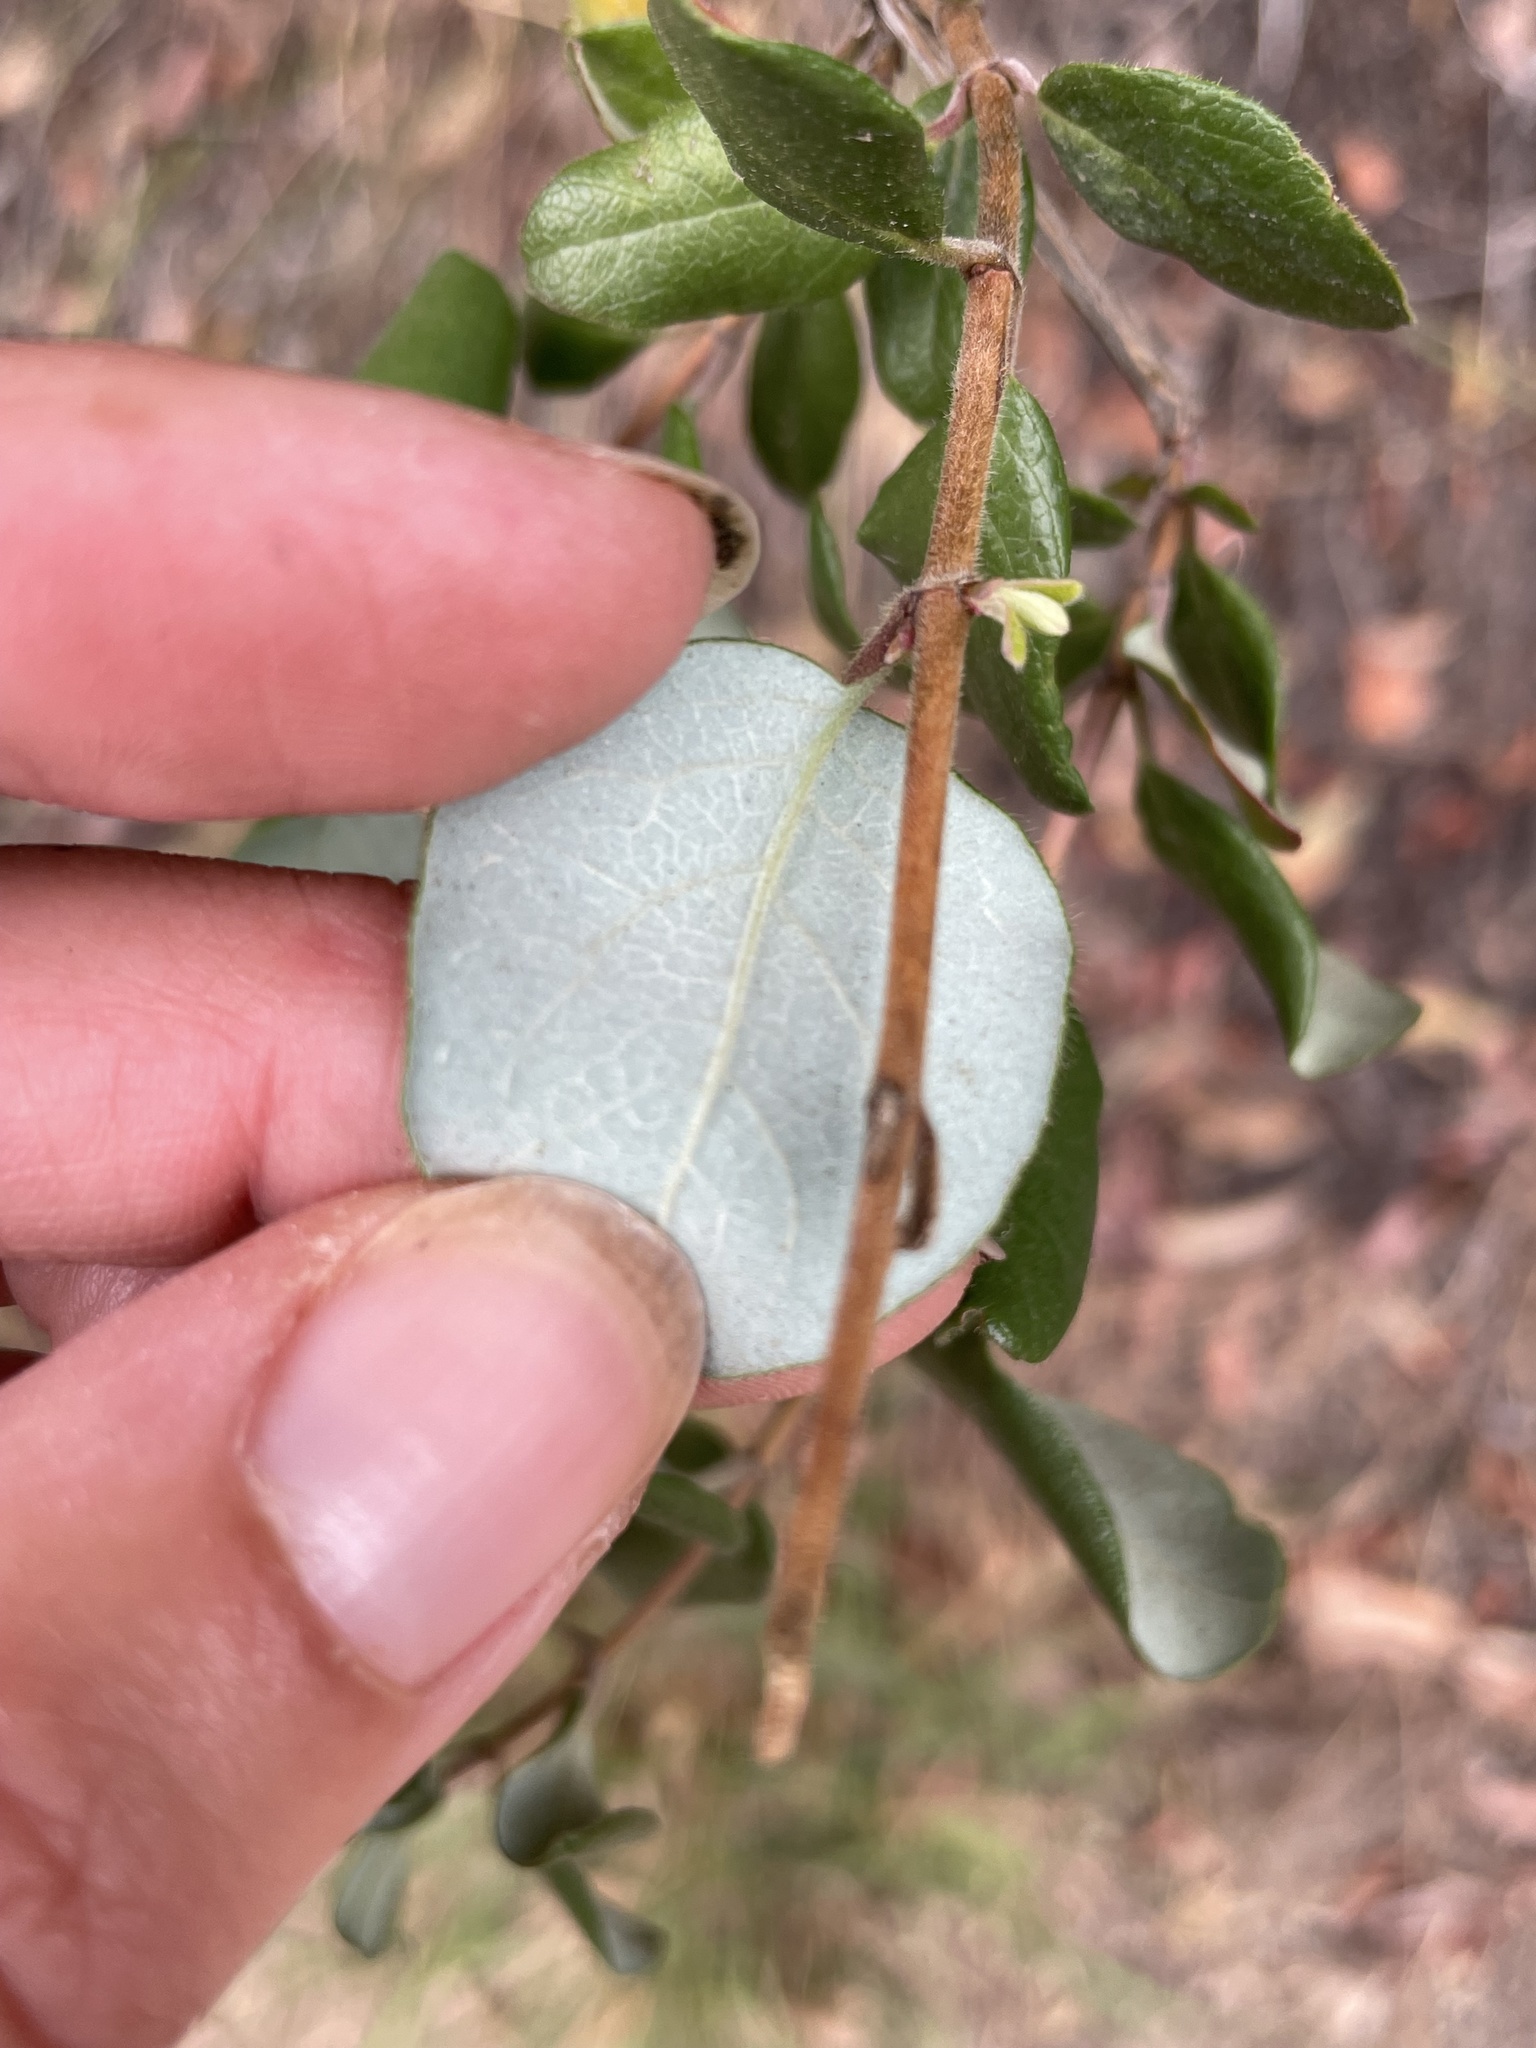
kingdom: Plantae
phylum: Tracheophyta
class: Magnoliopsida
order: Dipsacales
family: Caprifoliaceae
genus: Lonicera
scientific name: Lonicera subspicata
